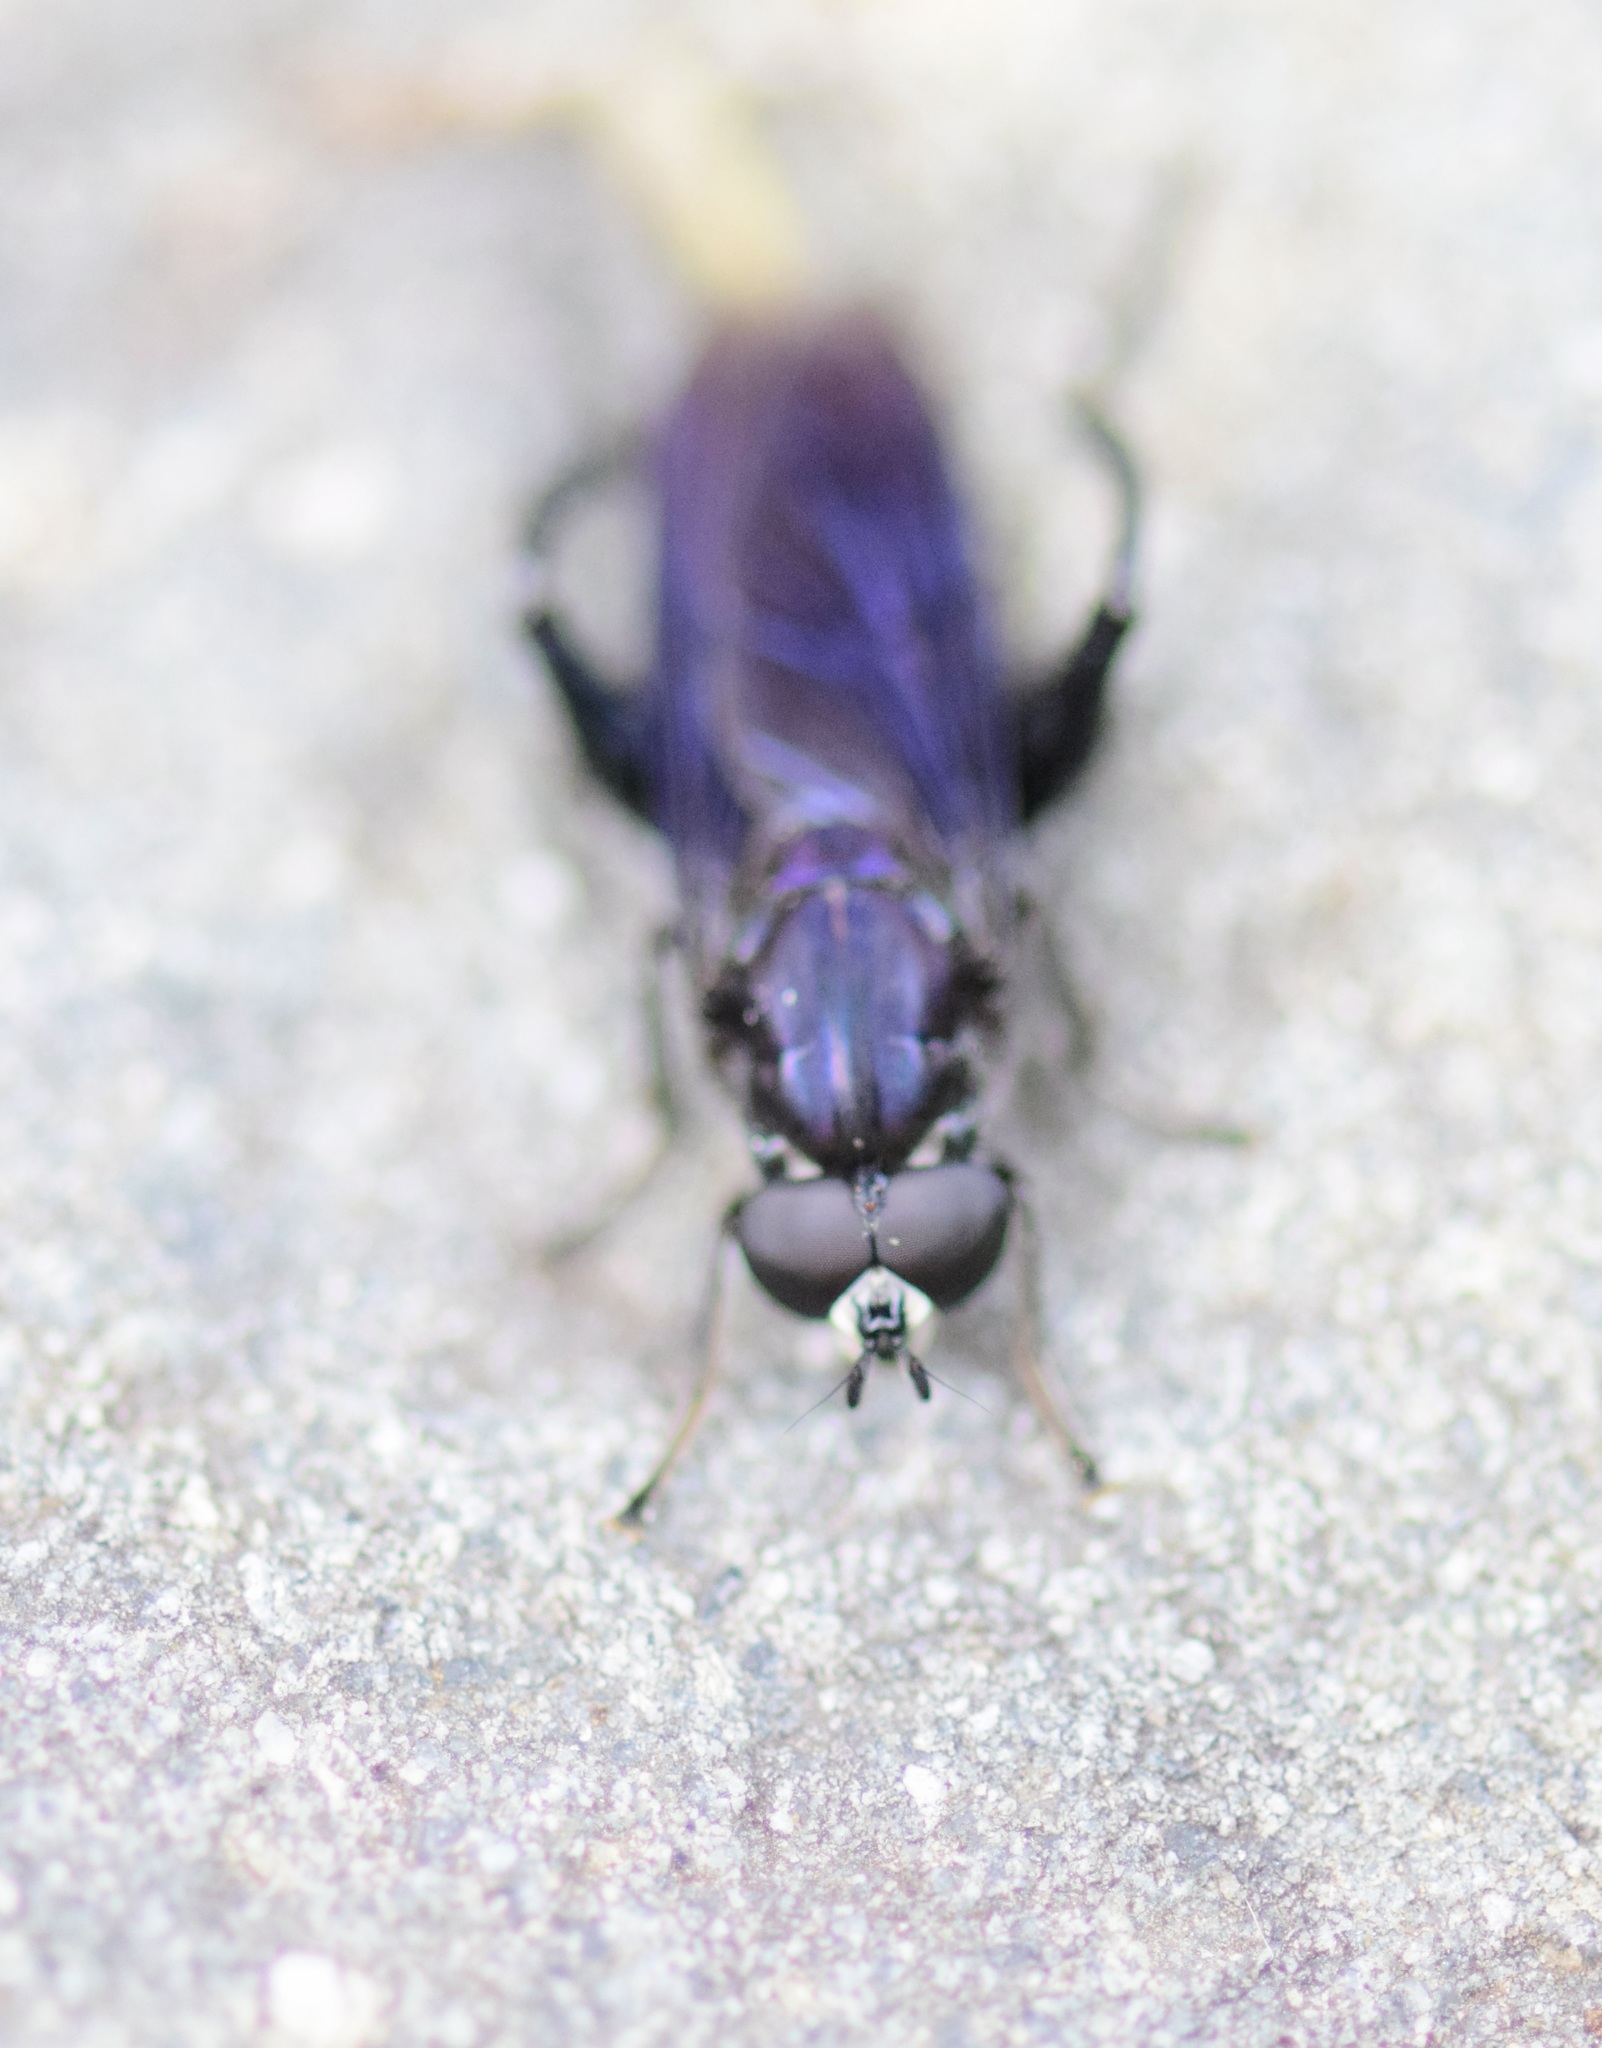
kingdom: Animalia
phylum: Arthropoda
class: Insecta
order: Diptera
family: Syrphidae
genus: Chalcosyrphus
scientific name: Chalcosyrphus chalybeus
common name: Violet leafwalker
